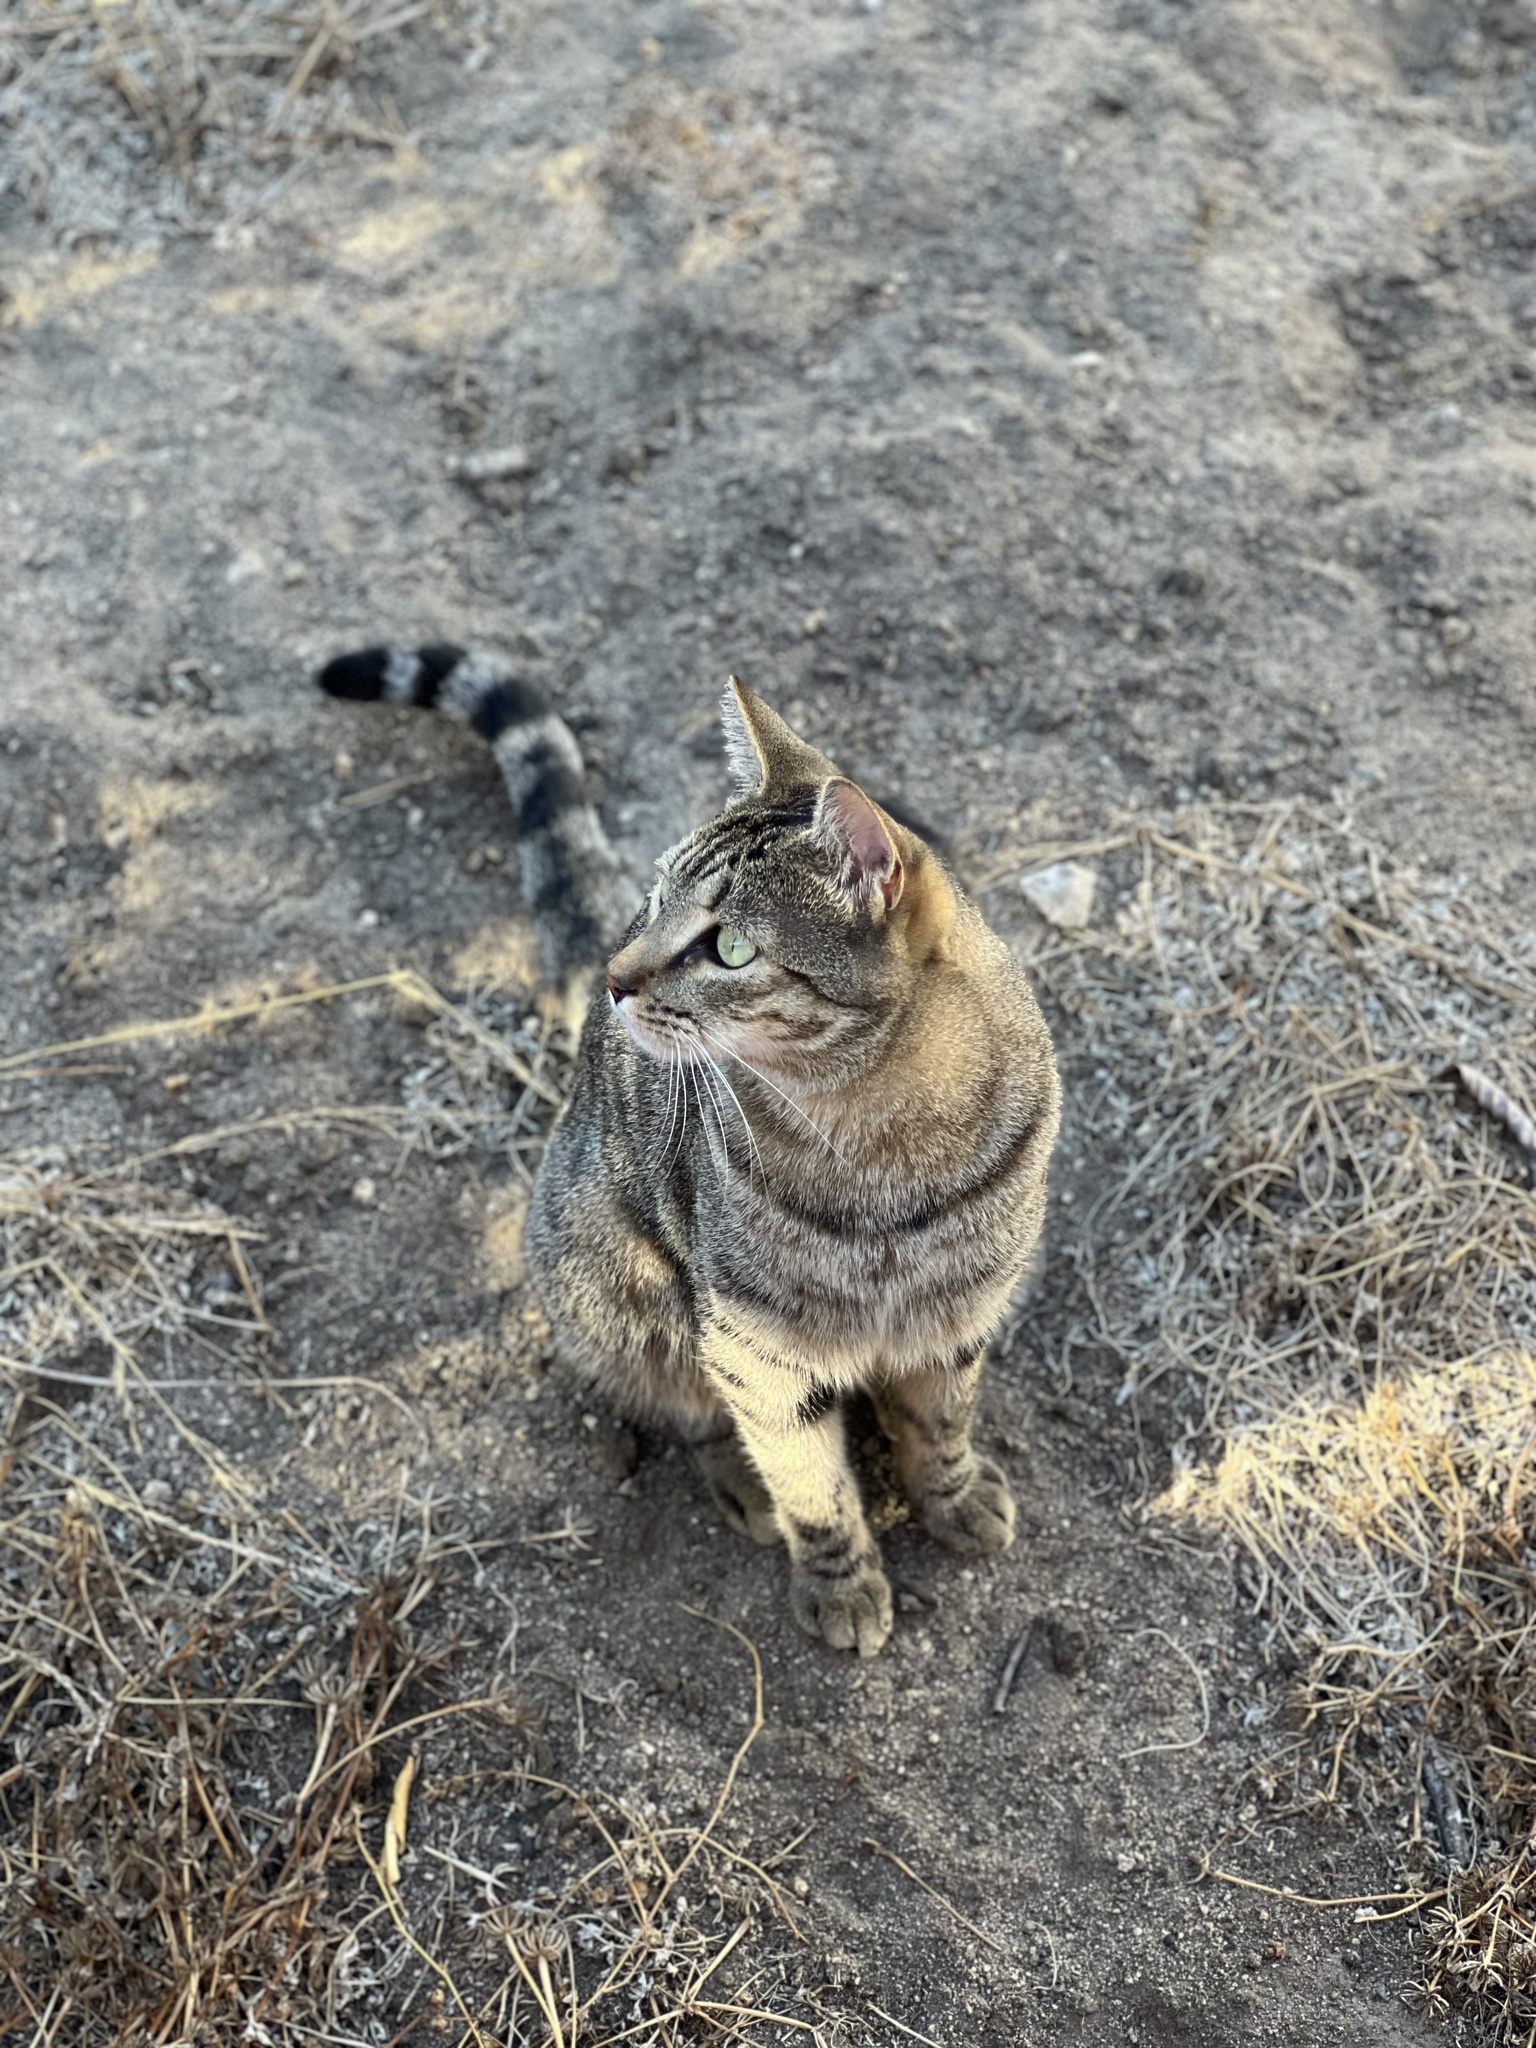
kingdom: Animalia
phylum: Chordata
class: Mammalia
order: Carnivora
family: Felidae
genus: Felis
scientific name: Felis catus
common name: Domestic cat
